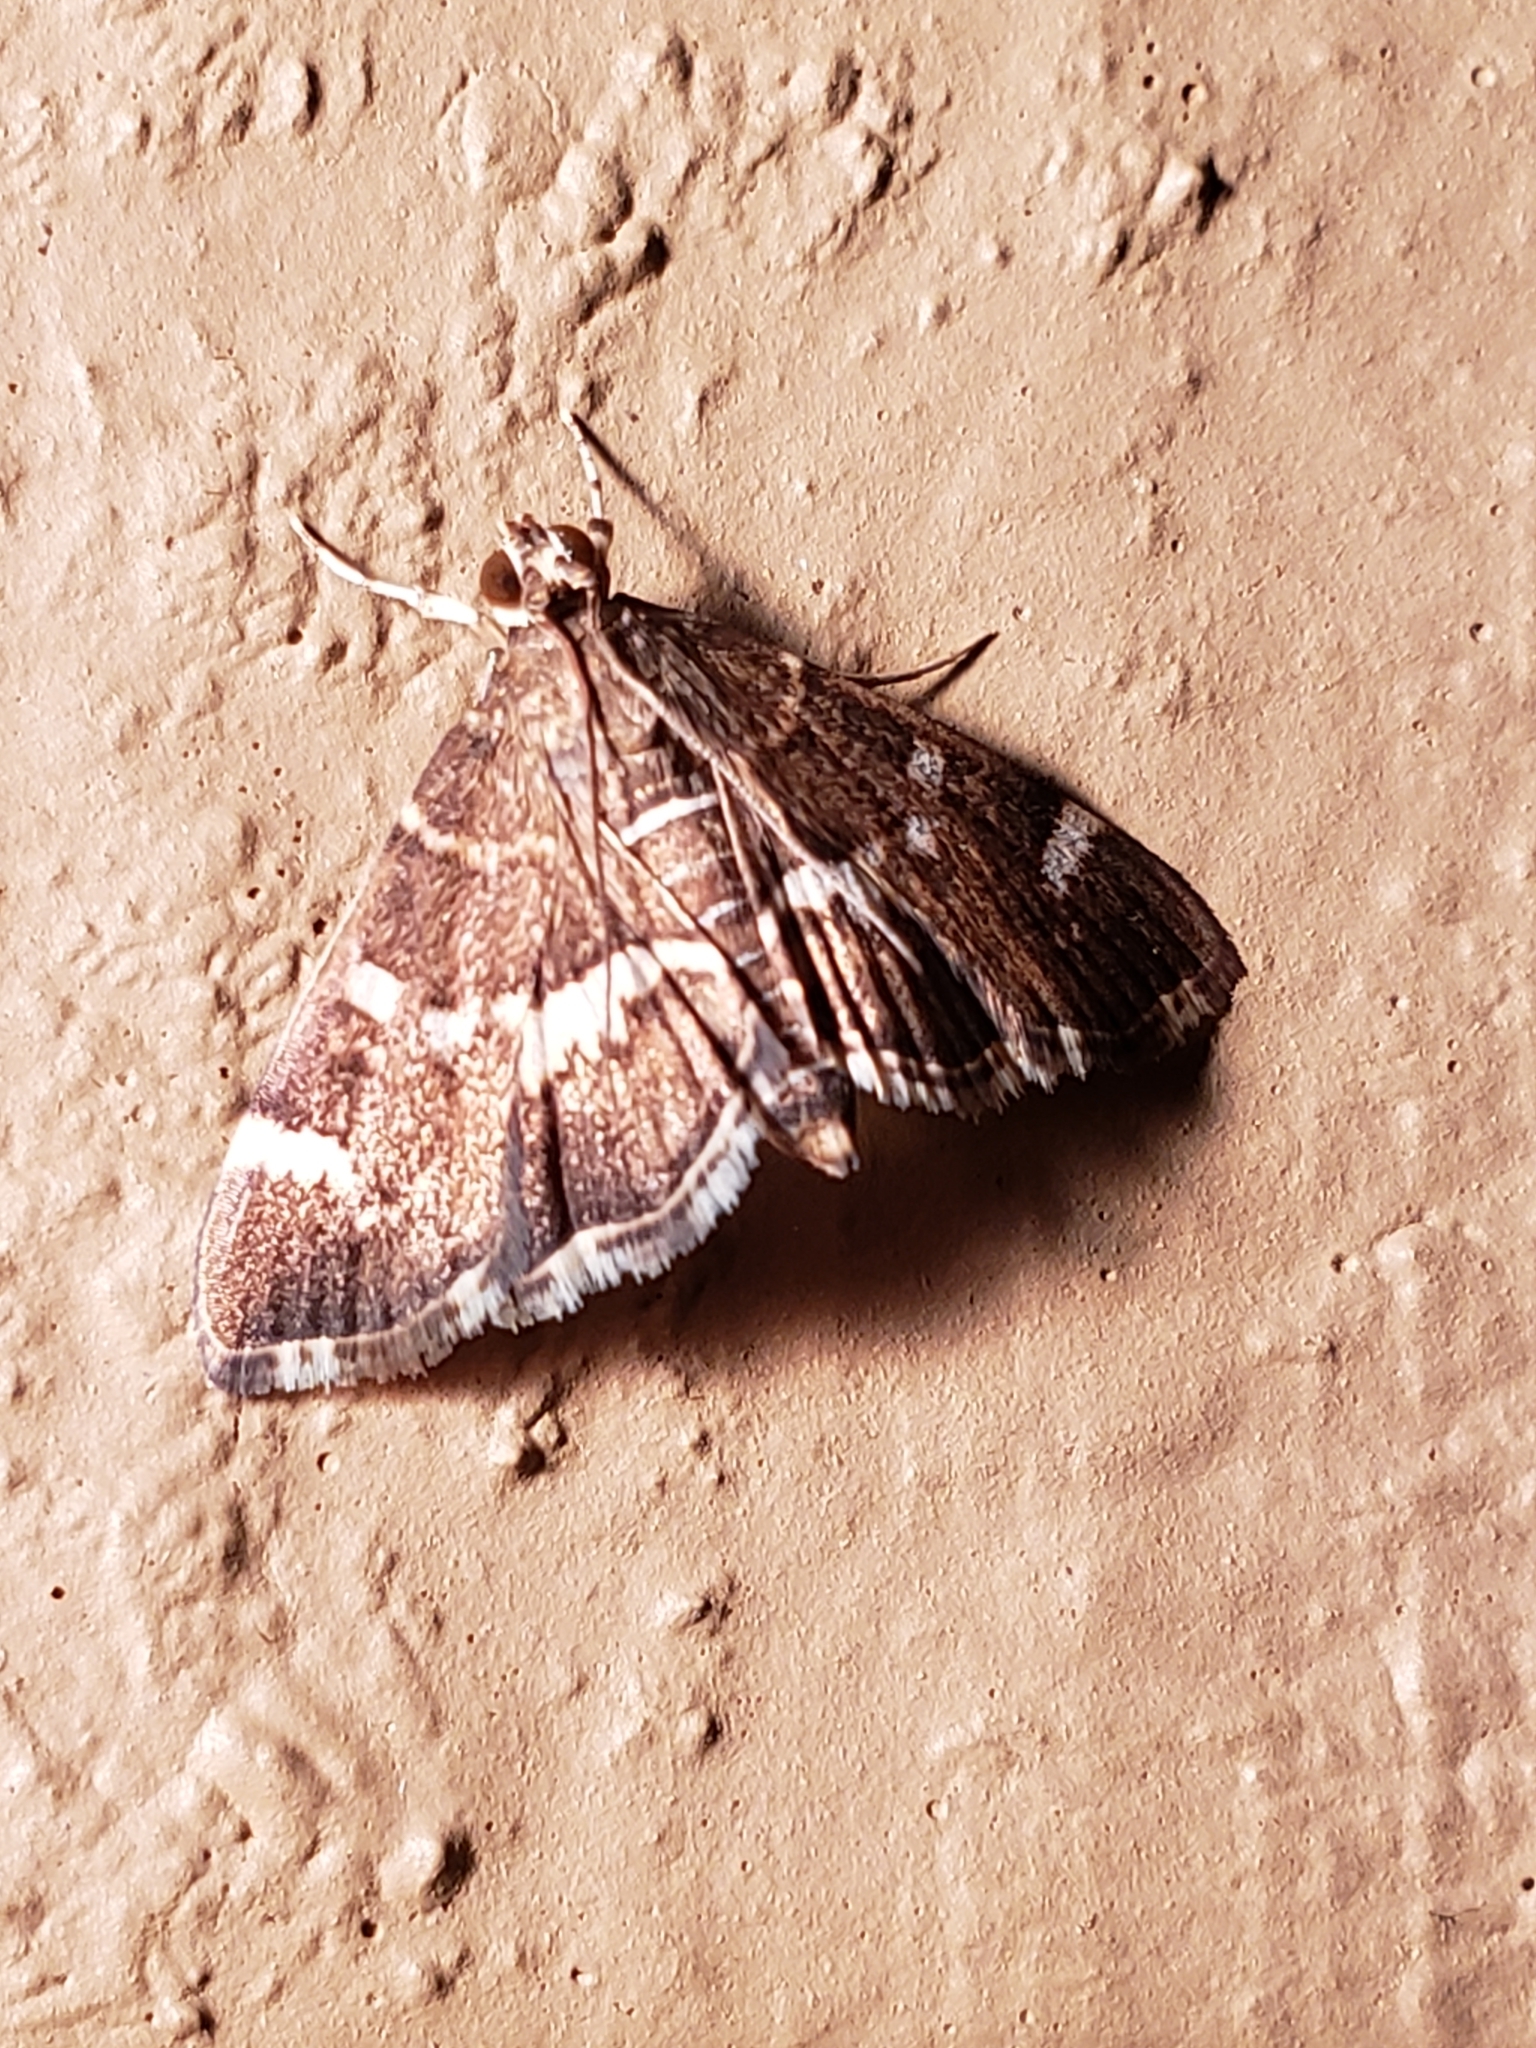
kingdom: Animalia
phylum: Arthropoda
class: Insecta
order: Lepidoptera
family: Crambidae
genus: Hymenia
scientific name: Hymenia perspectalis
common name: Spotted beet webworm
